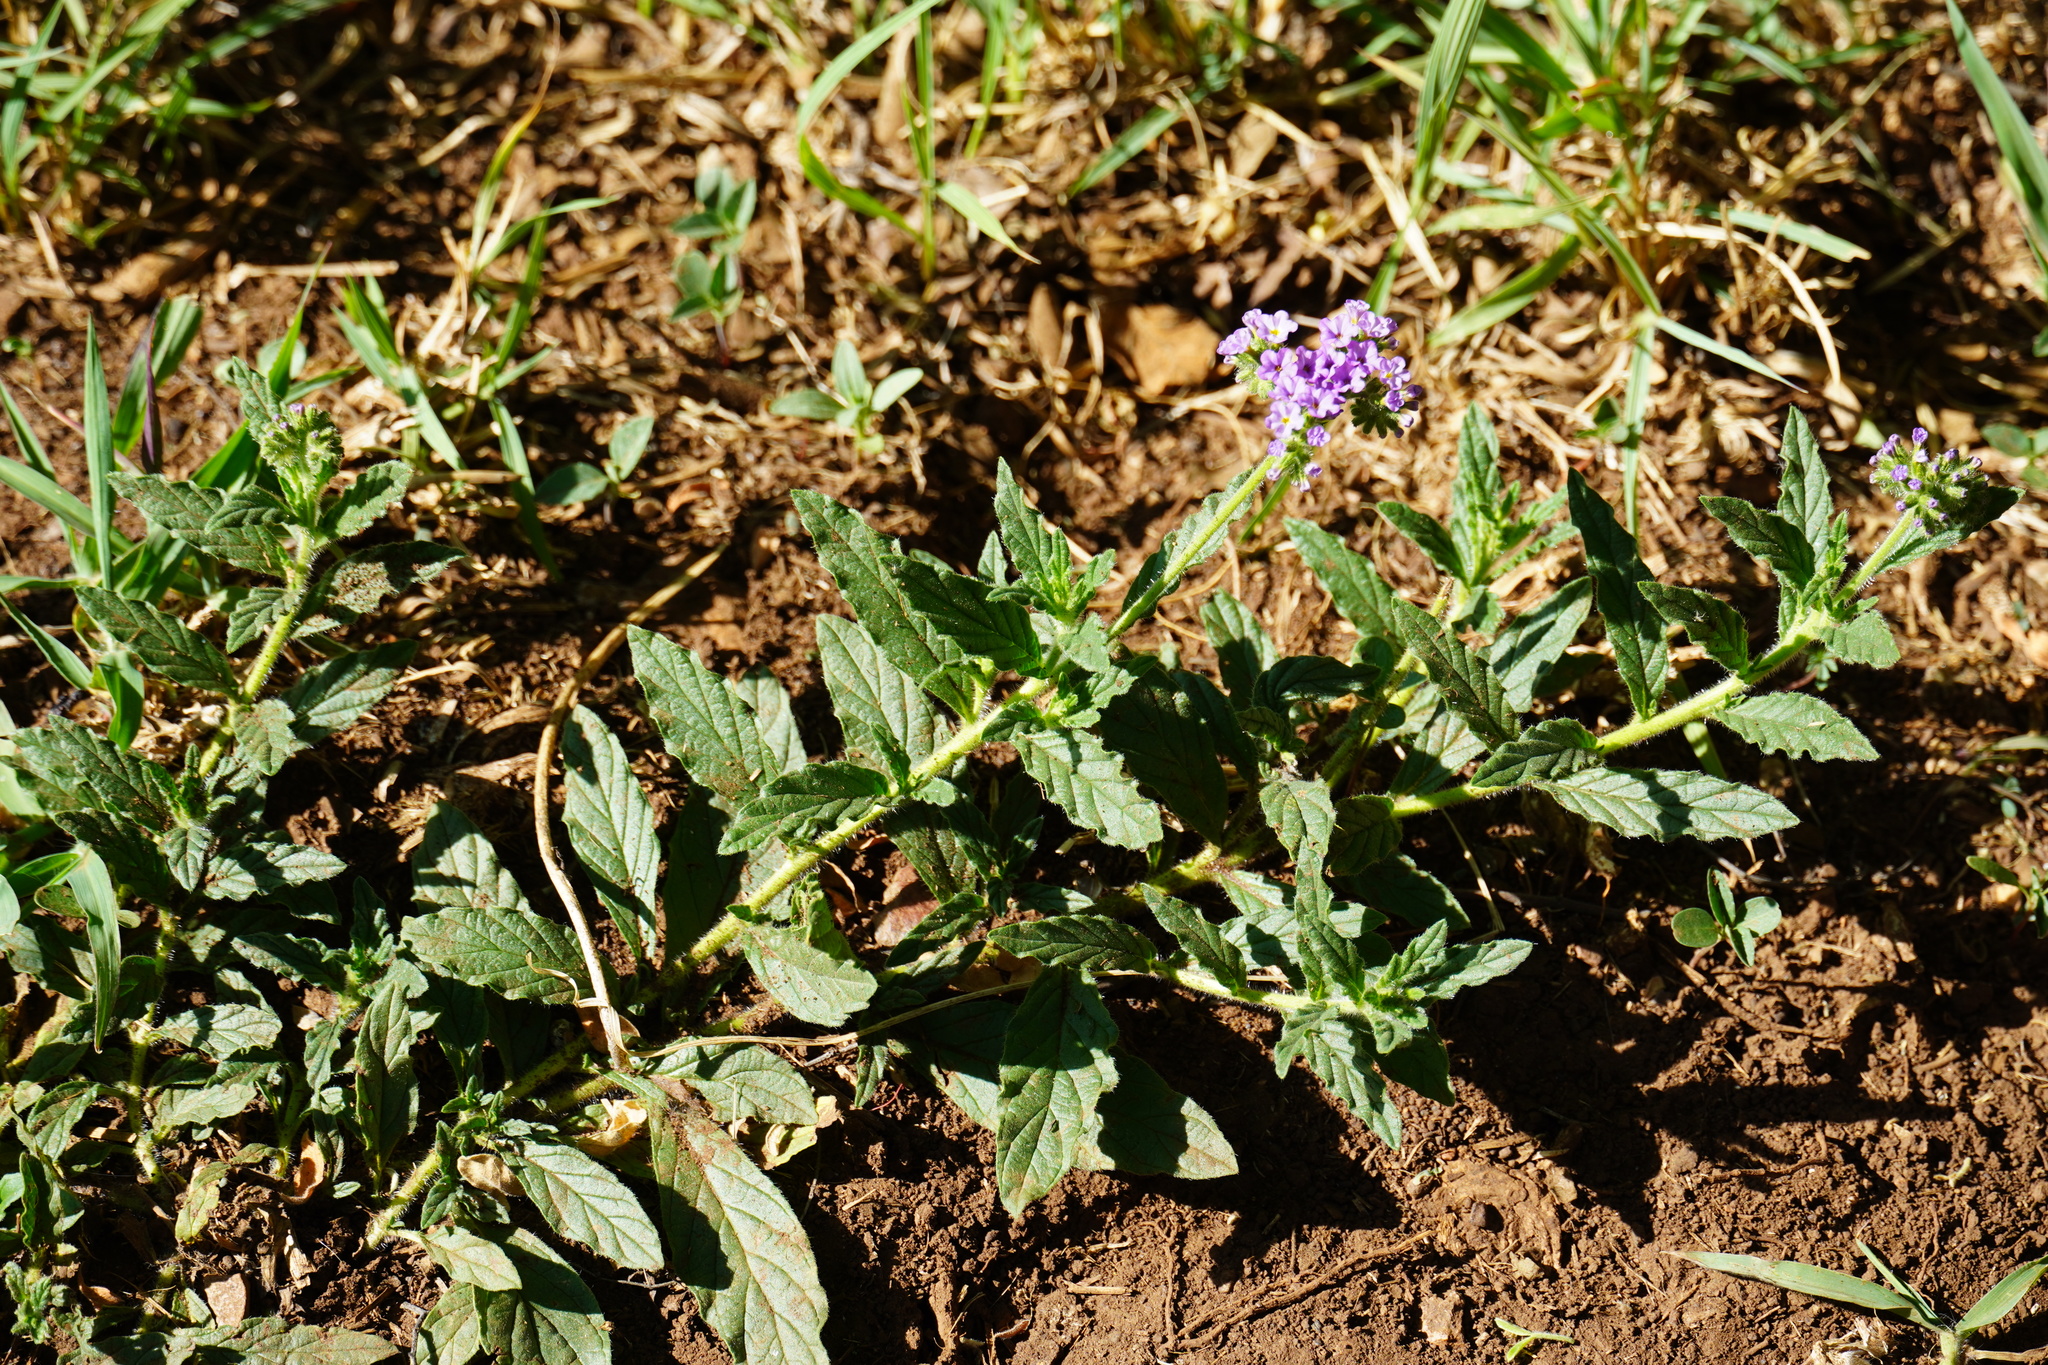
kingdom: Plantae
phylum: Tracheophyta
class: Magnoliopsida
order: Boraginales
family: Heliotropiaceae
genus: Heliotropium
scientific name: Heliotropium amplexicaule
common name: Clasping heliotrope
